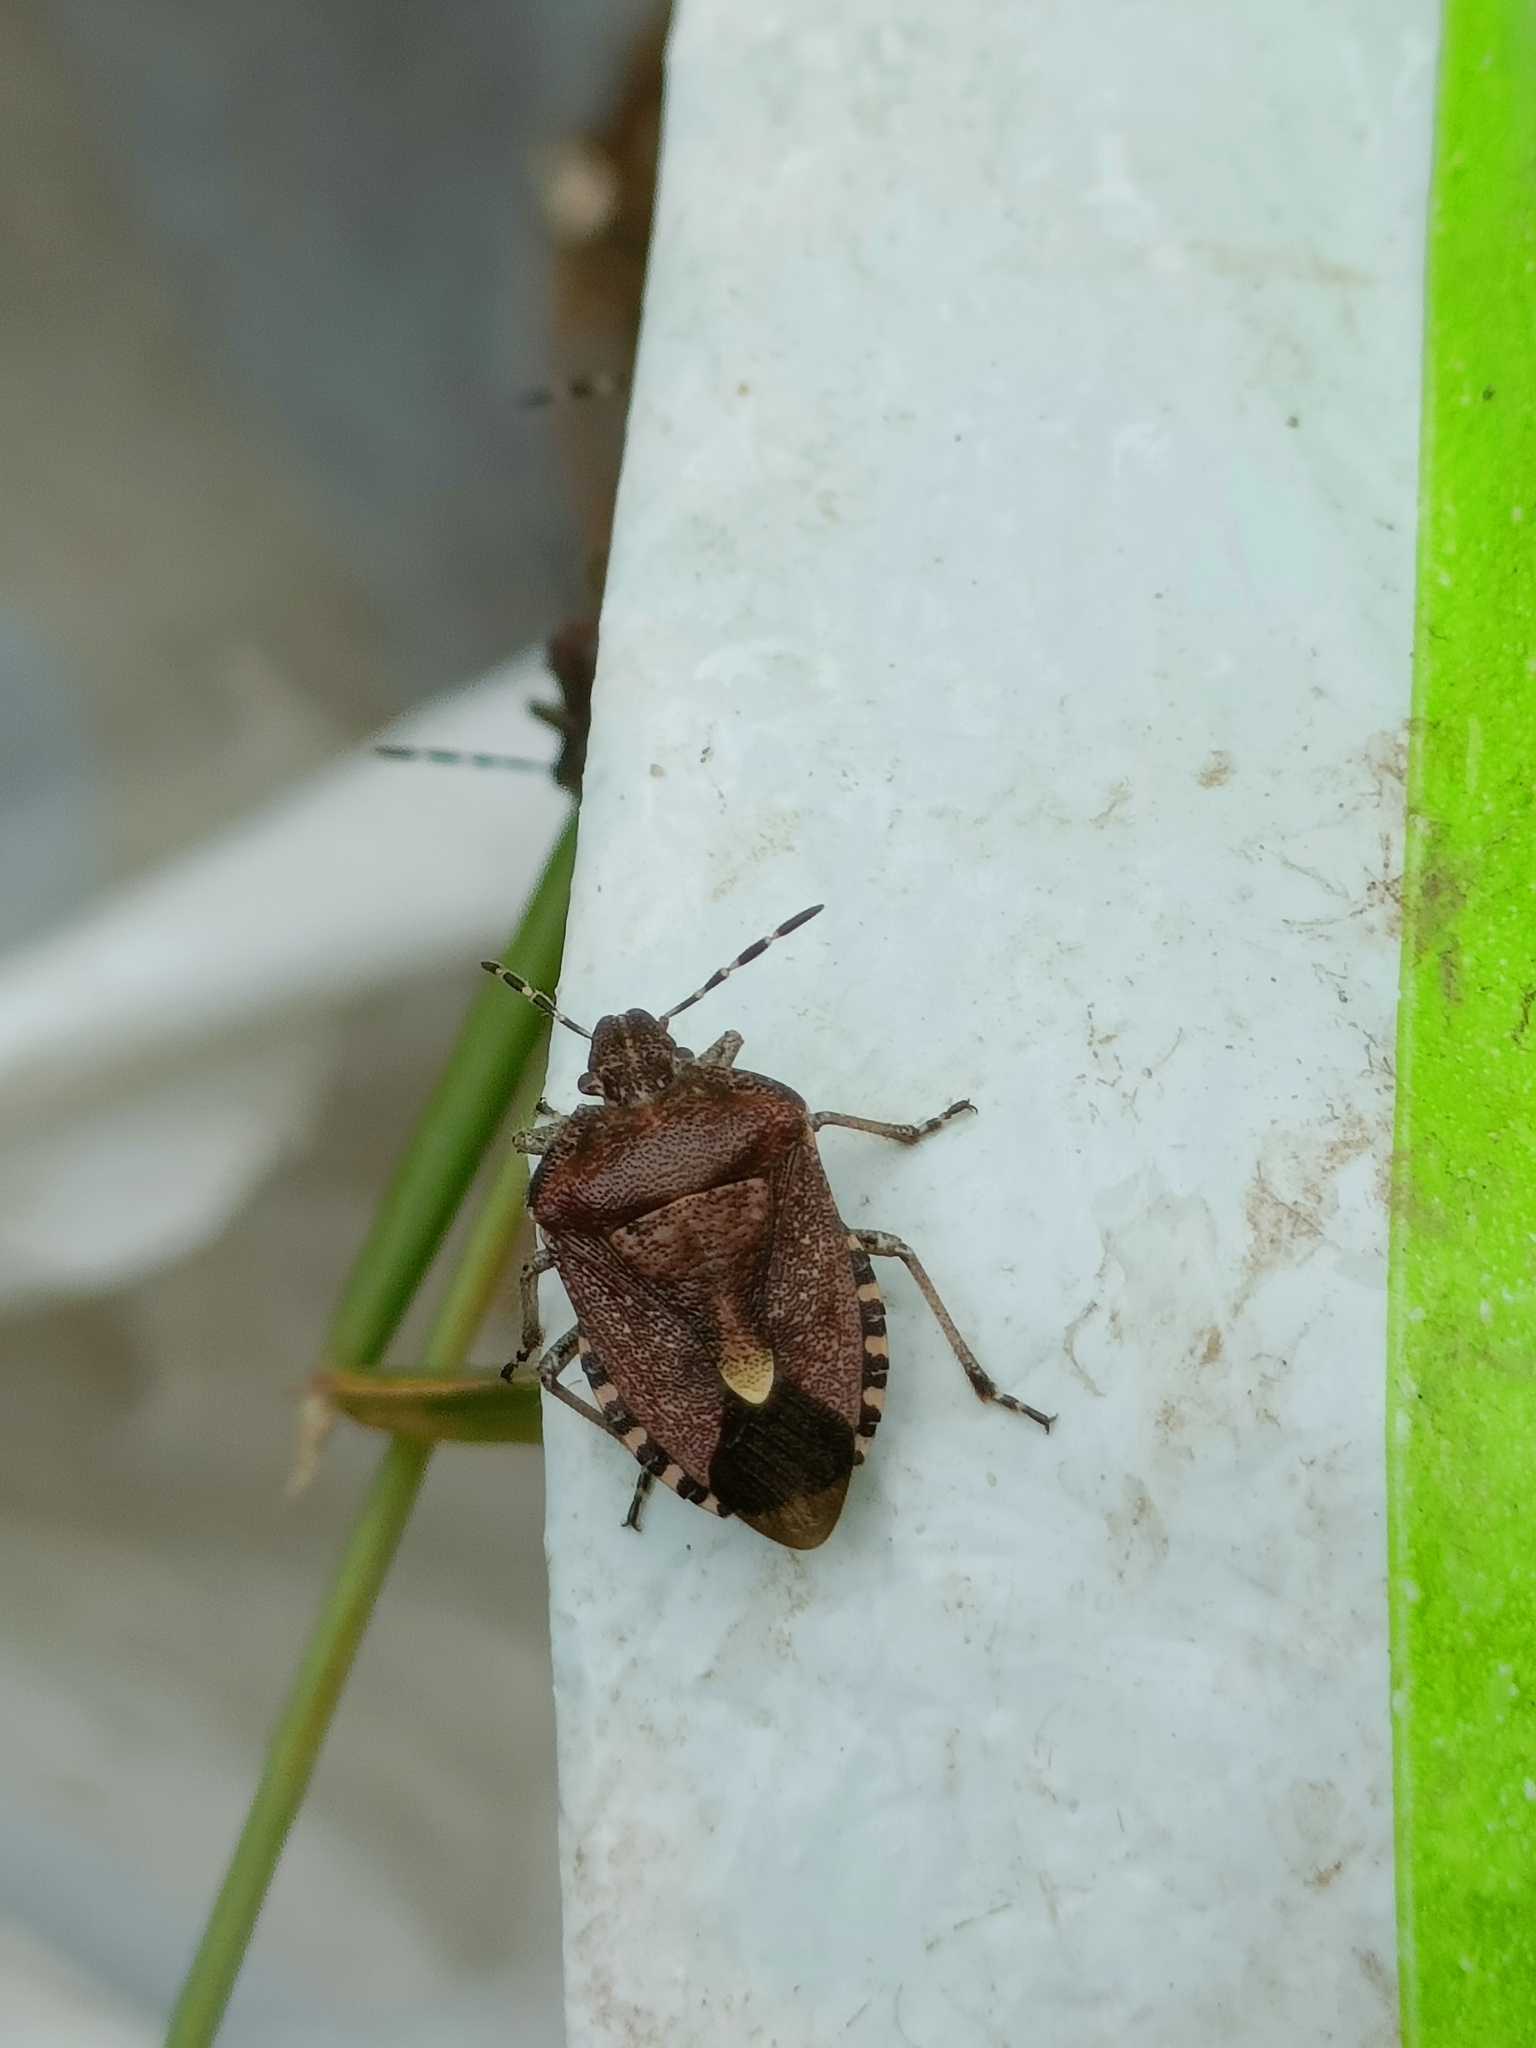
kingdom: Animalia
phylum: Arthropoda
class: Insecta
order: Hemiptera
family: Pentatomidae
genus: Dolycoris
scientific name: Dolycoris baccarum
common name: Sloe bug
